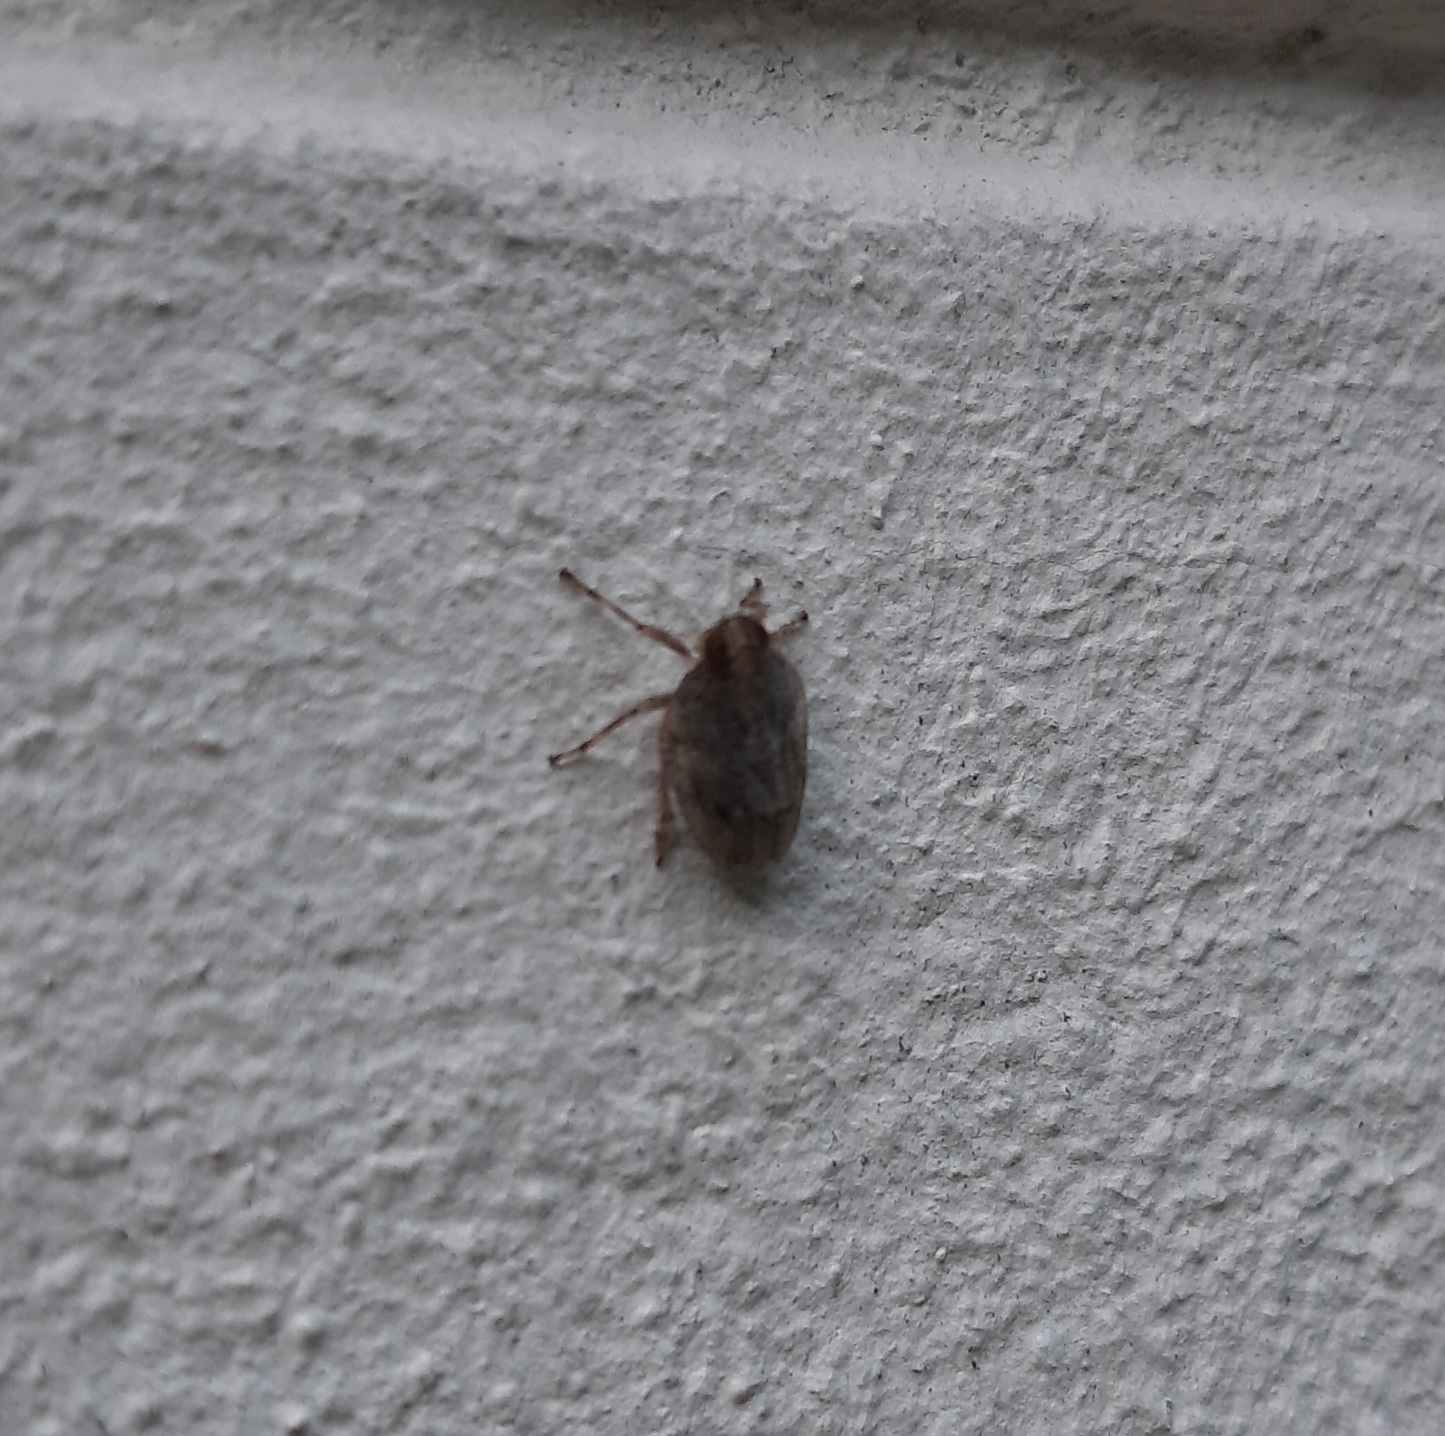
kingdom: Animalia
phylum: Arthropoda
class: Insecta
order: Hemiptera
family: Issidae
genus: Issus
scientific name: Issus
